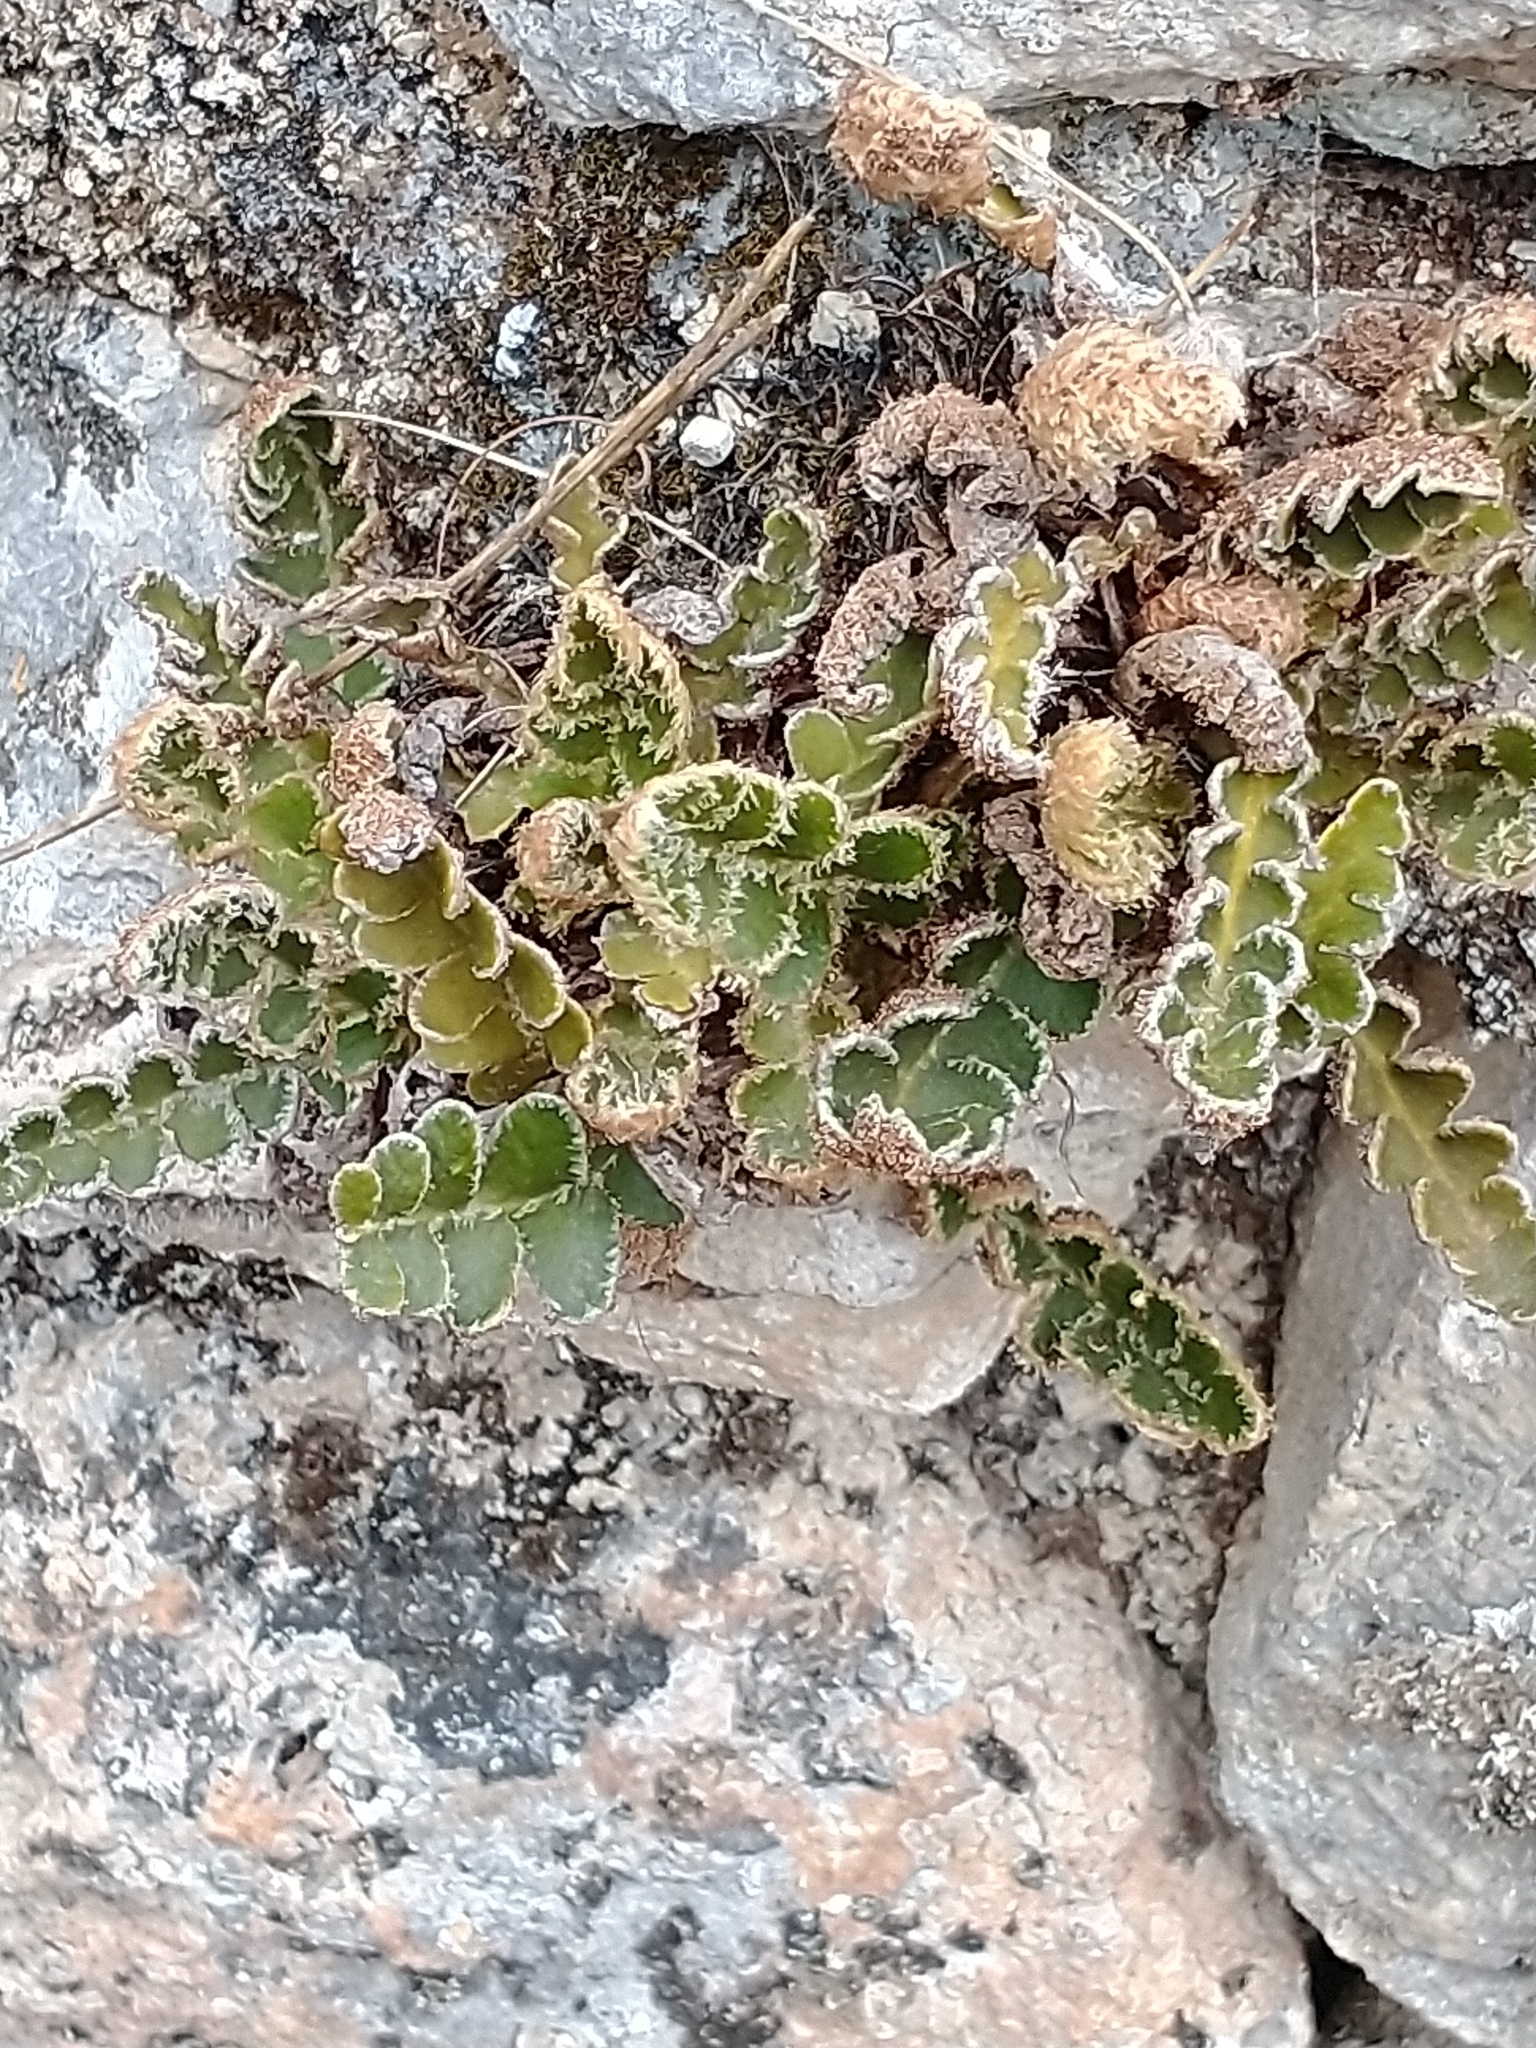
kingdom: Plantae
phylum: Tracheophyta
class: Polypodiopsida
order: Polypodiales
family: Aspleniaceae
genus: Asplenium
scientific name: Asplenium ceterach
